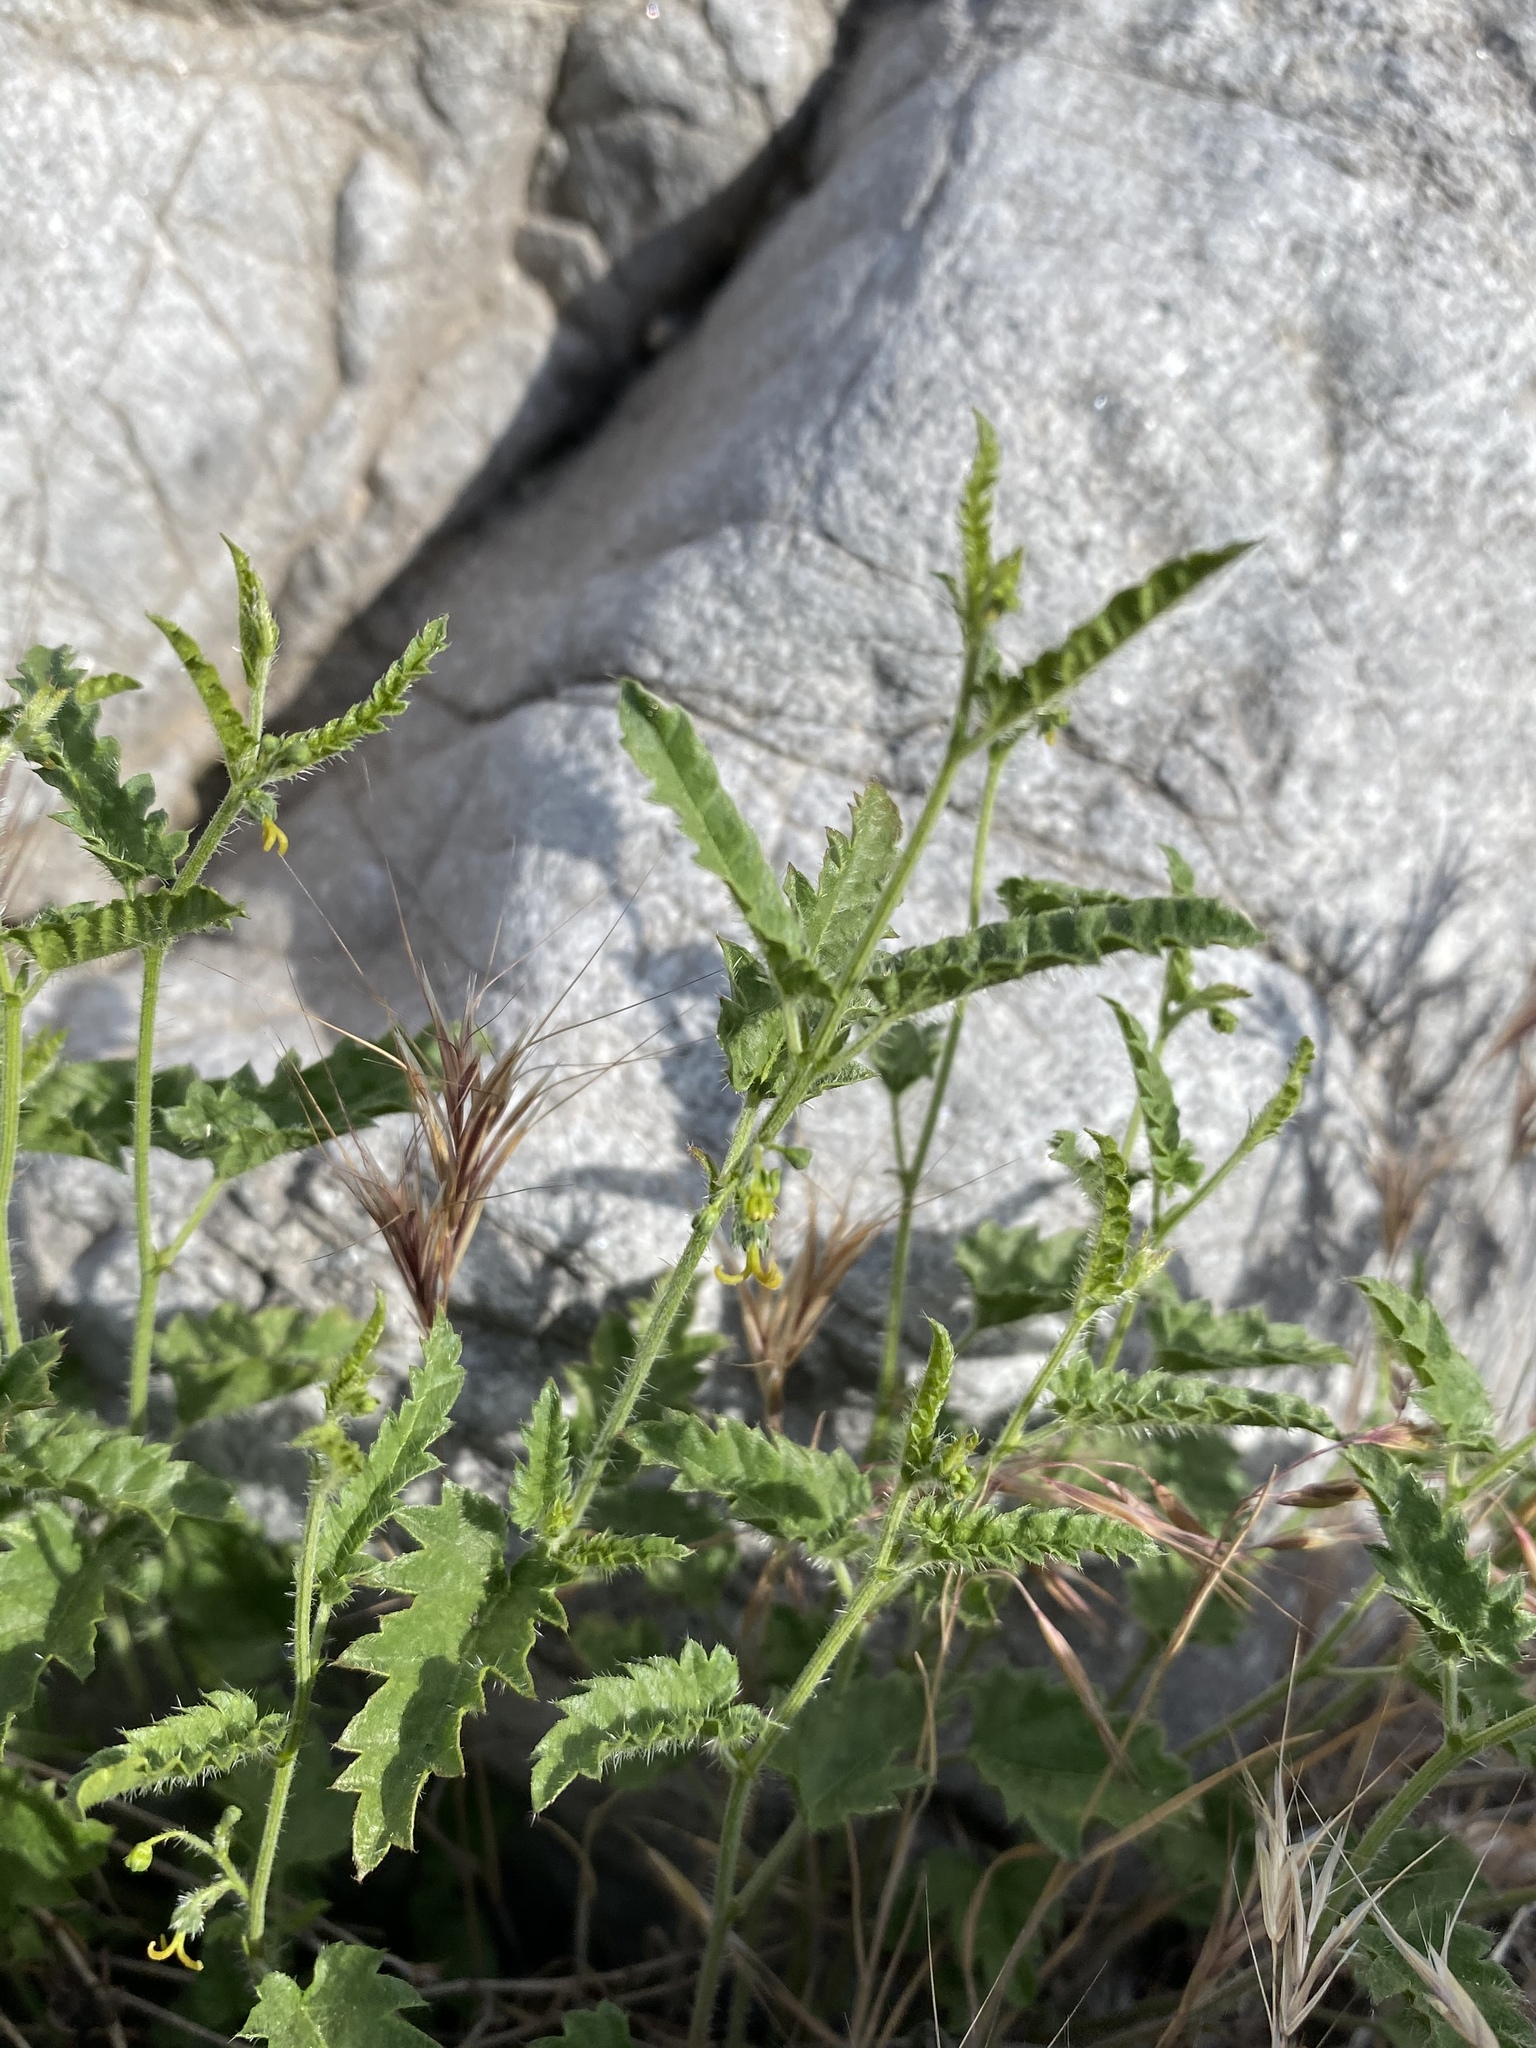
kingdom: Plantae
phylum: Tracheophyta
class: Magnoliopsida
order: Malpighiales
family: Euphorbiaceae
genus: Tragia
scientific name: Tragia ramosa
